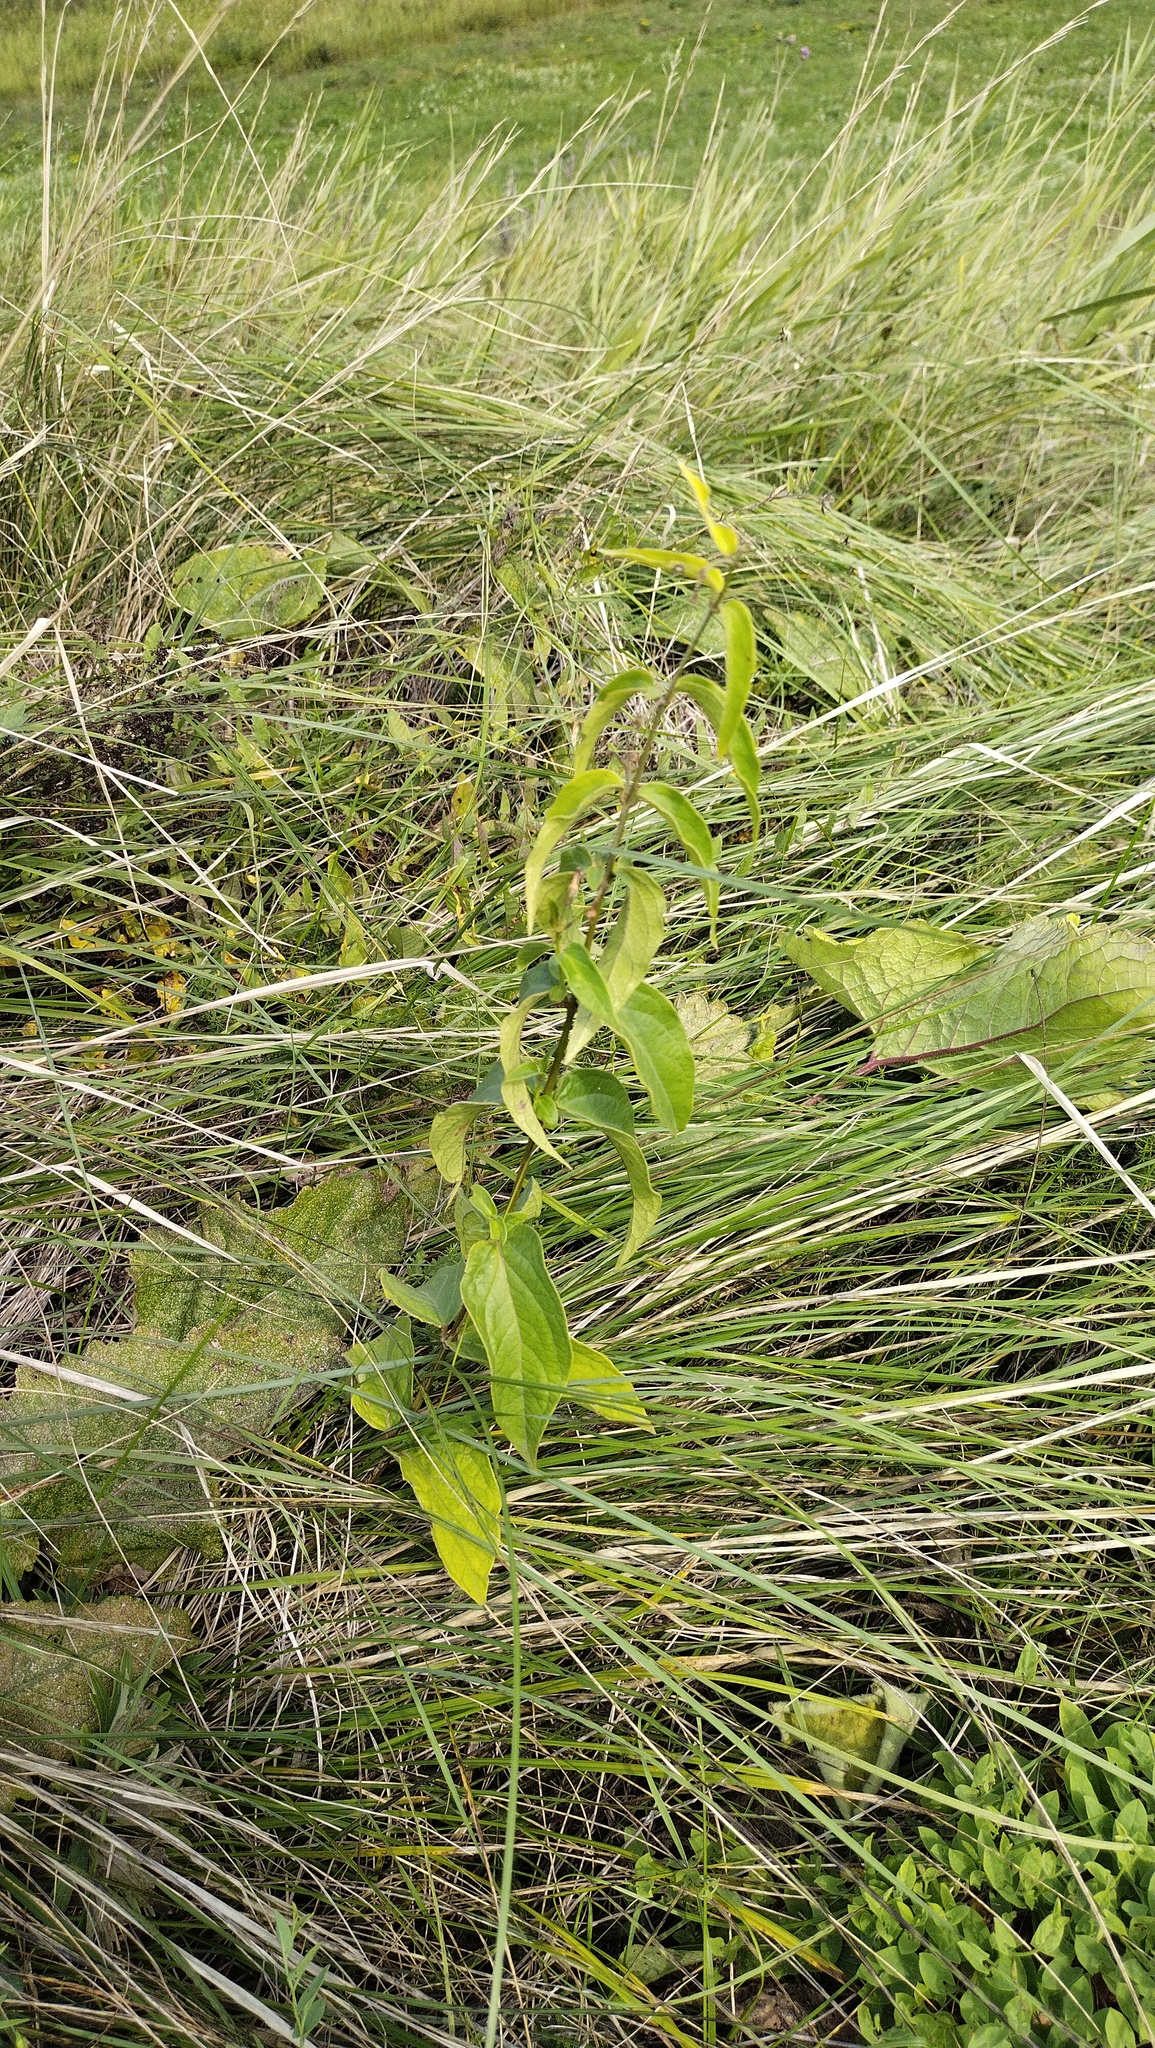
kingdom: Plantae
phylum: Tracheophyta
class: Magnoliopsida
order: Gentianales
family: Apocynaceae
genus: Vincetoxicum
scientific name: Vincetoxicum hirundinaria
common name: White swallowwort
